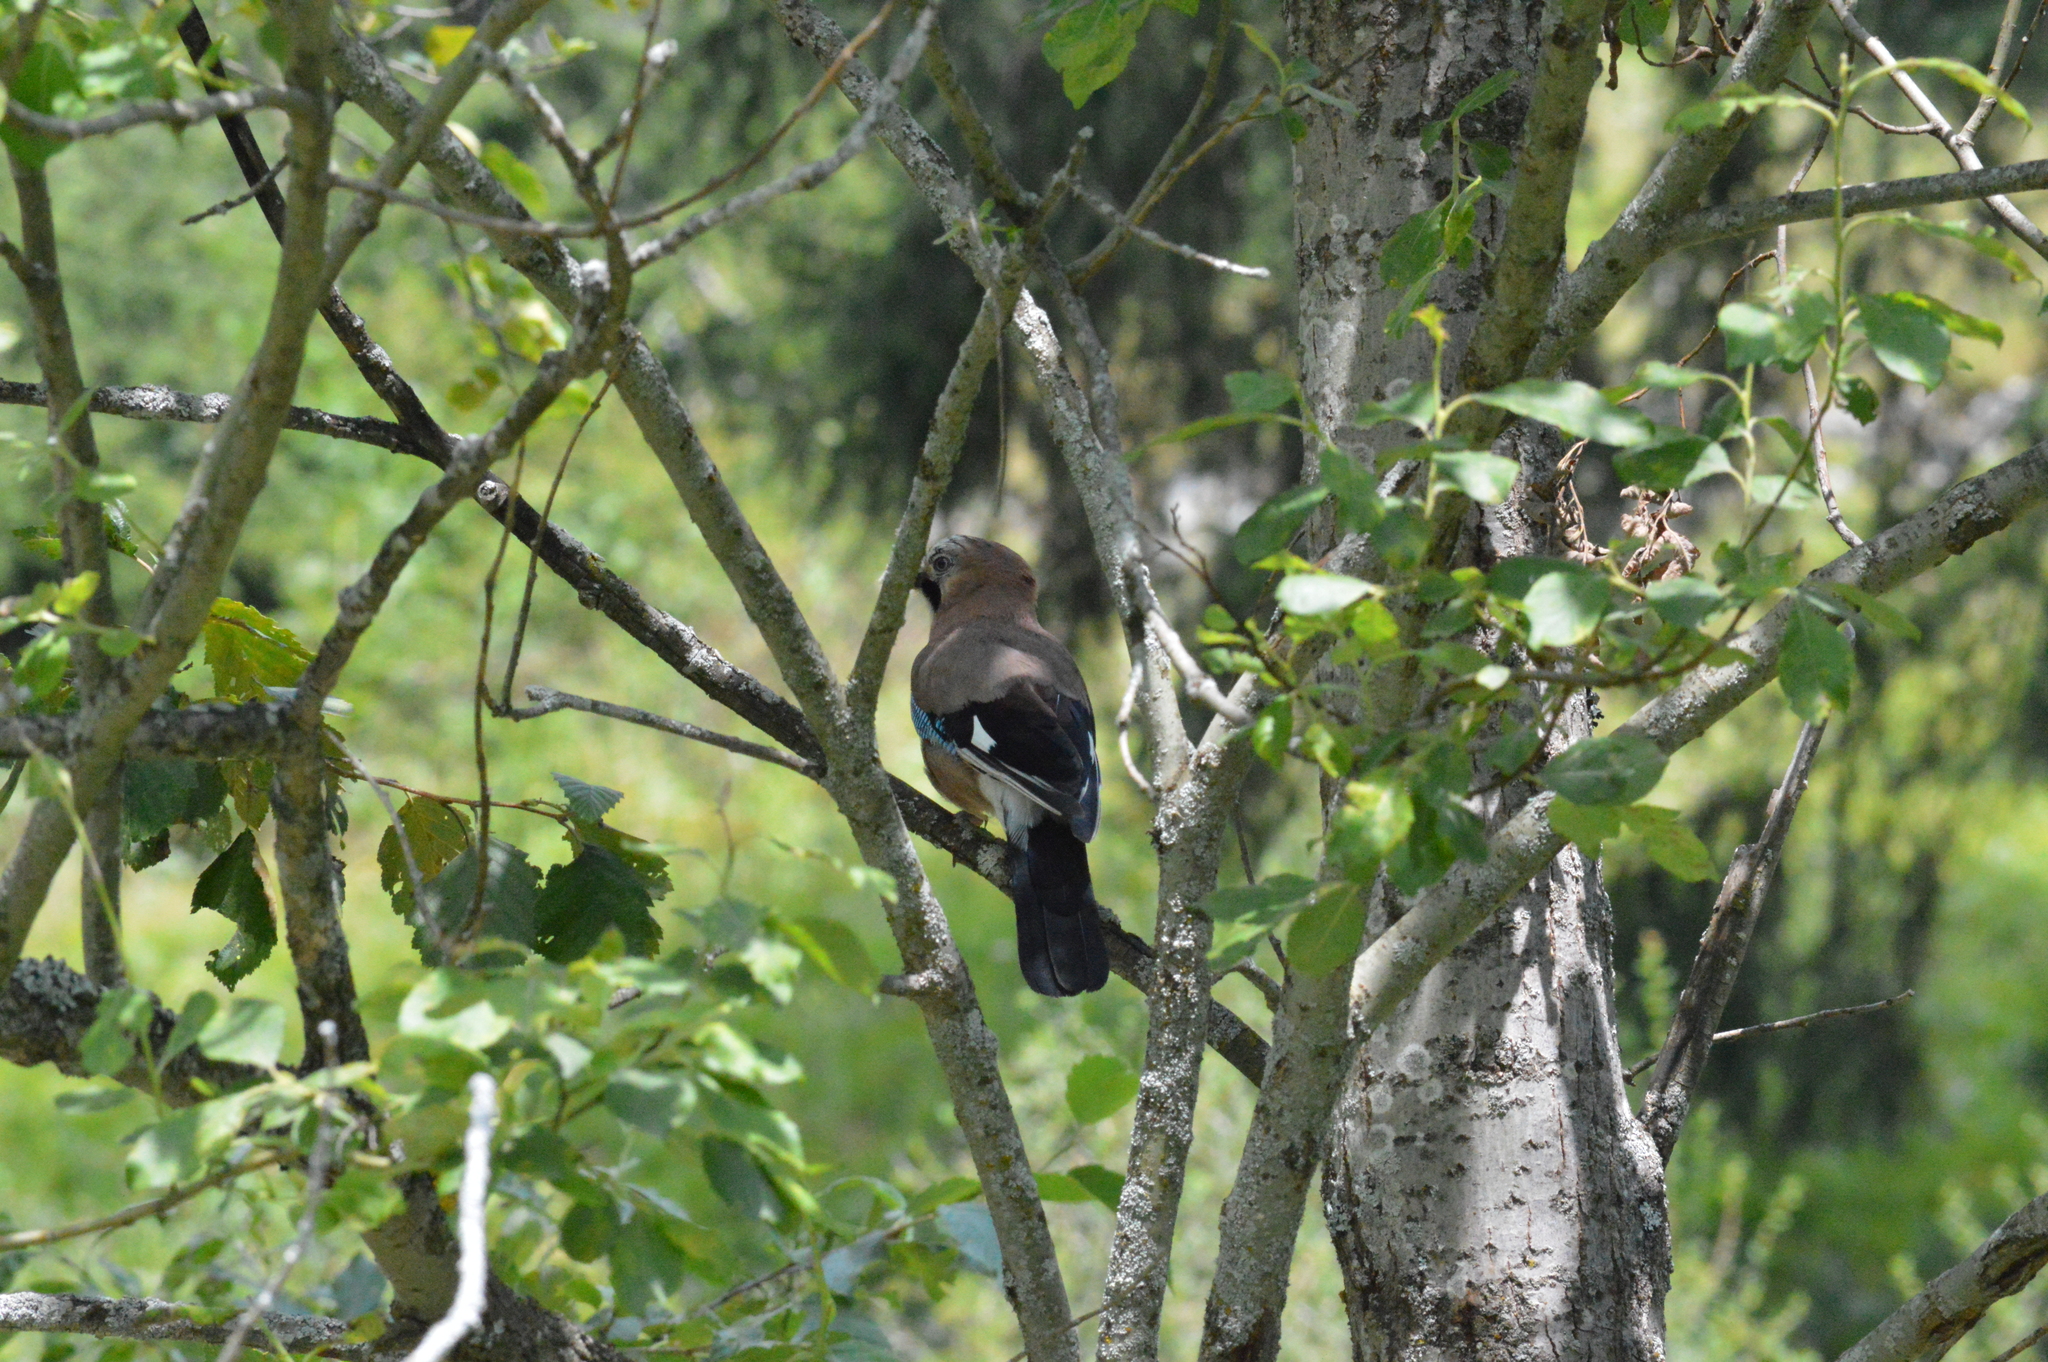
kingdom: Animalia
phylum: Chordata
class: Aves
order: Passeriformes
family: Corvidae
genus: Garrulus
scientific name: Garrulus glandarius
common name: Eurasian jay
